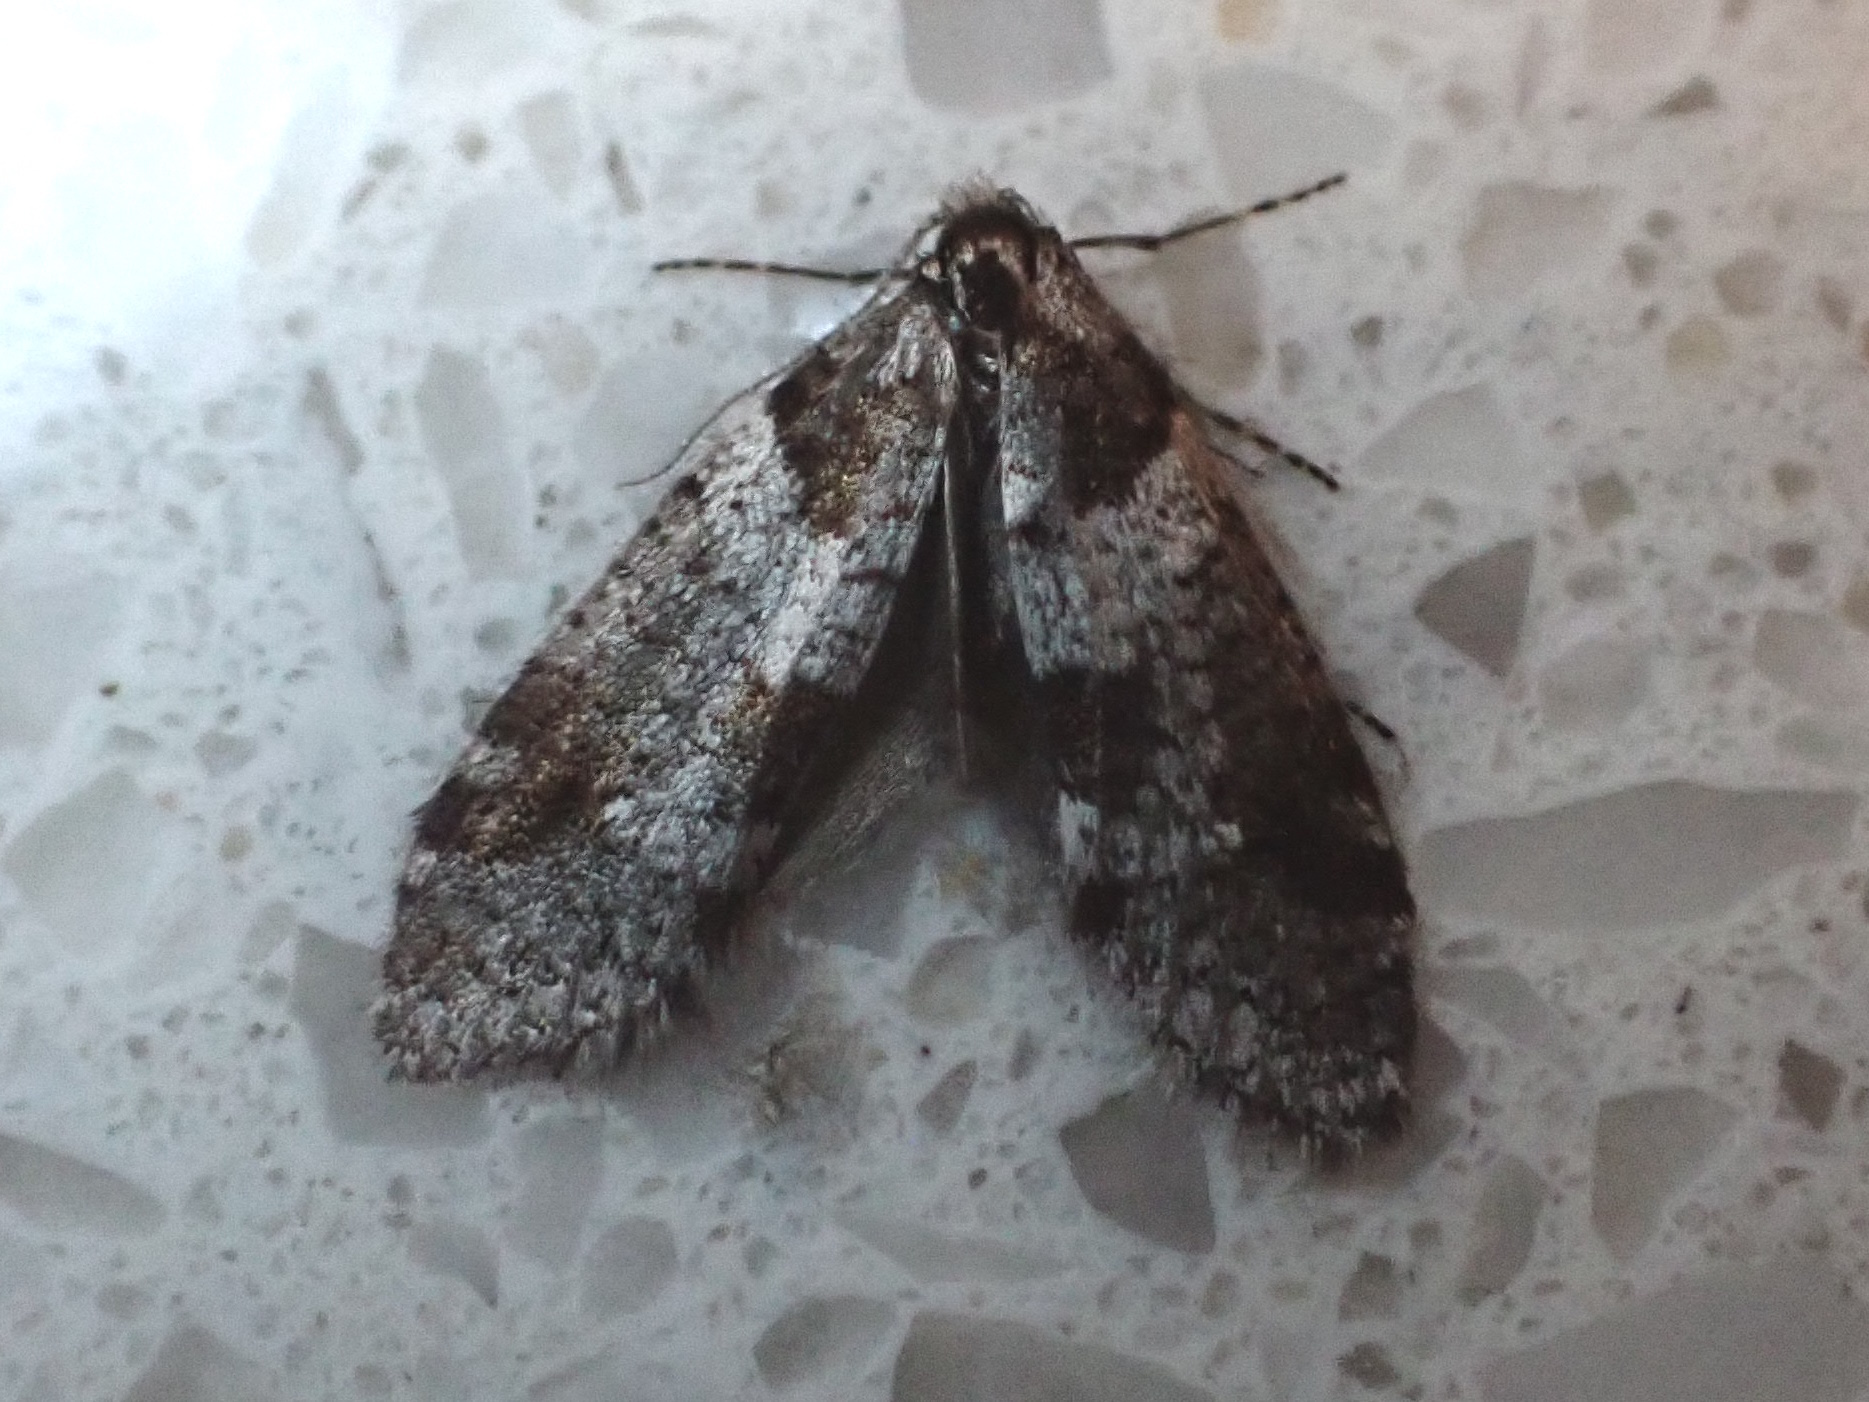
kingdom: Animalia
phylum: Arthropoda
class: Insecta
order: Lepidoptera
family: Psychidae
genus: Lepidoscia
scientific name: Lepidoscia heliochares
